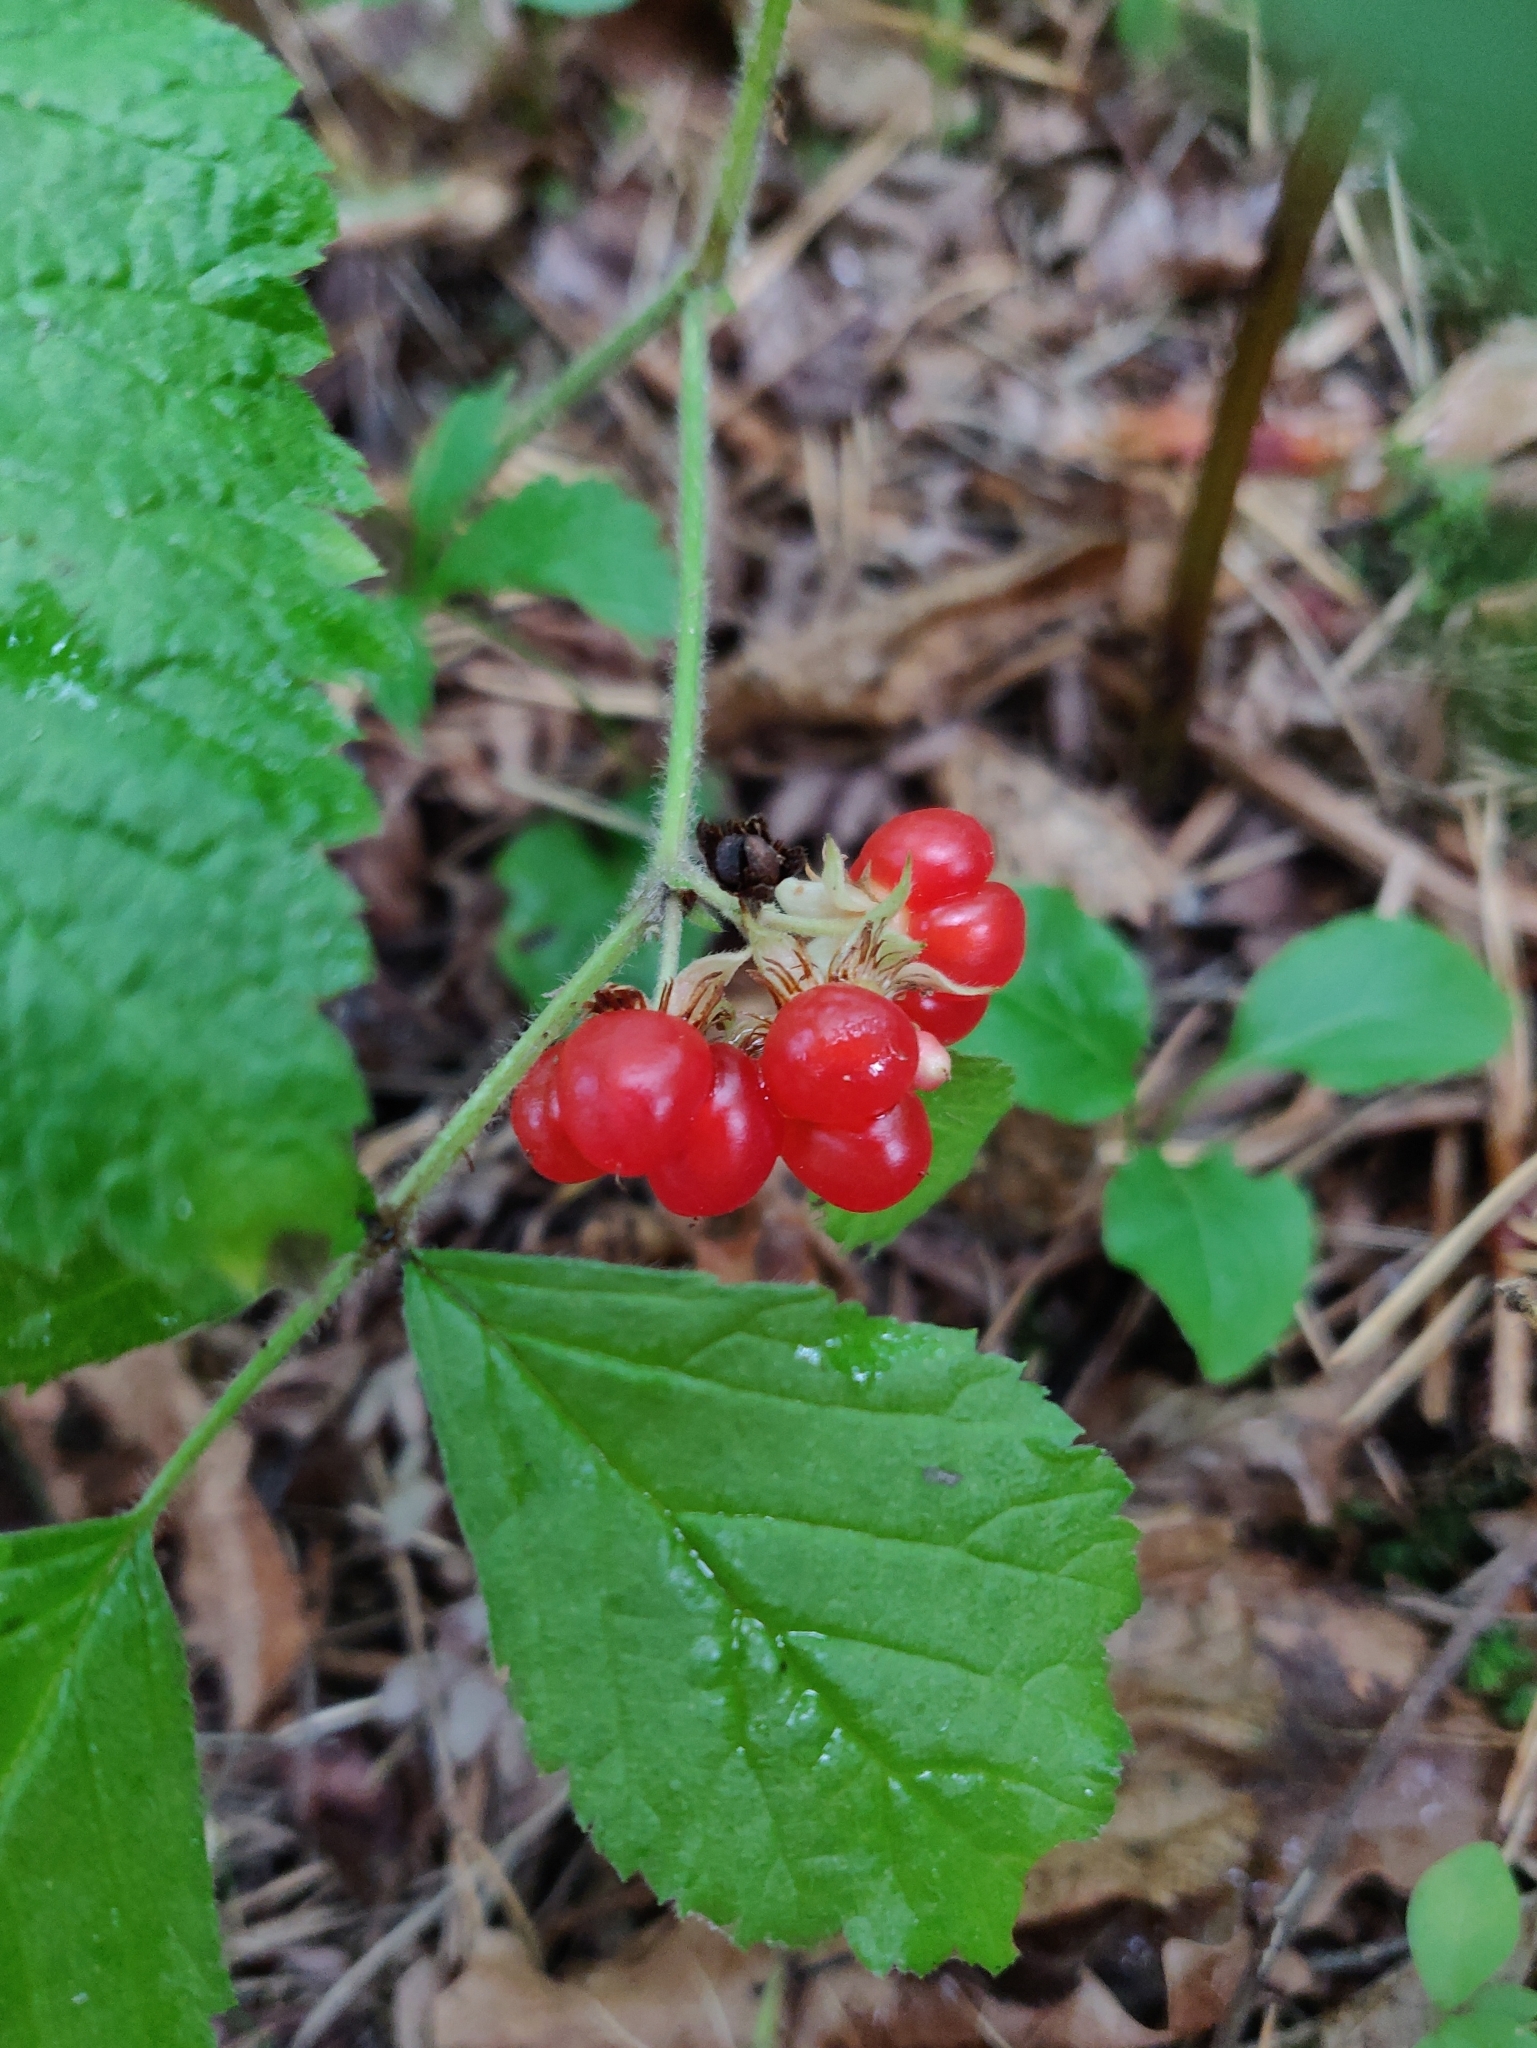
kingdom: Plantae
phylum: Tracheophyta
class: Magnoliopsida
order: Rosales
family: Rosaceae
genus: Rubus
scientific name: Rubus saxatilis
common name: Stone bramble
